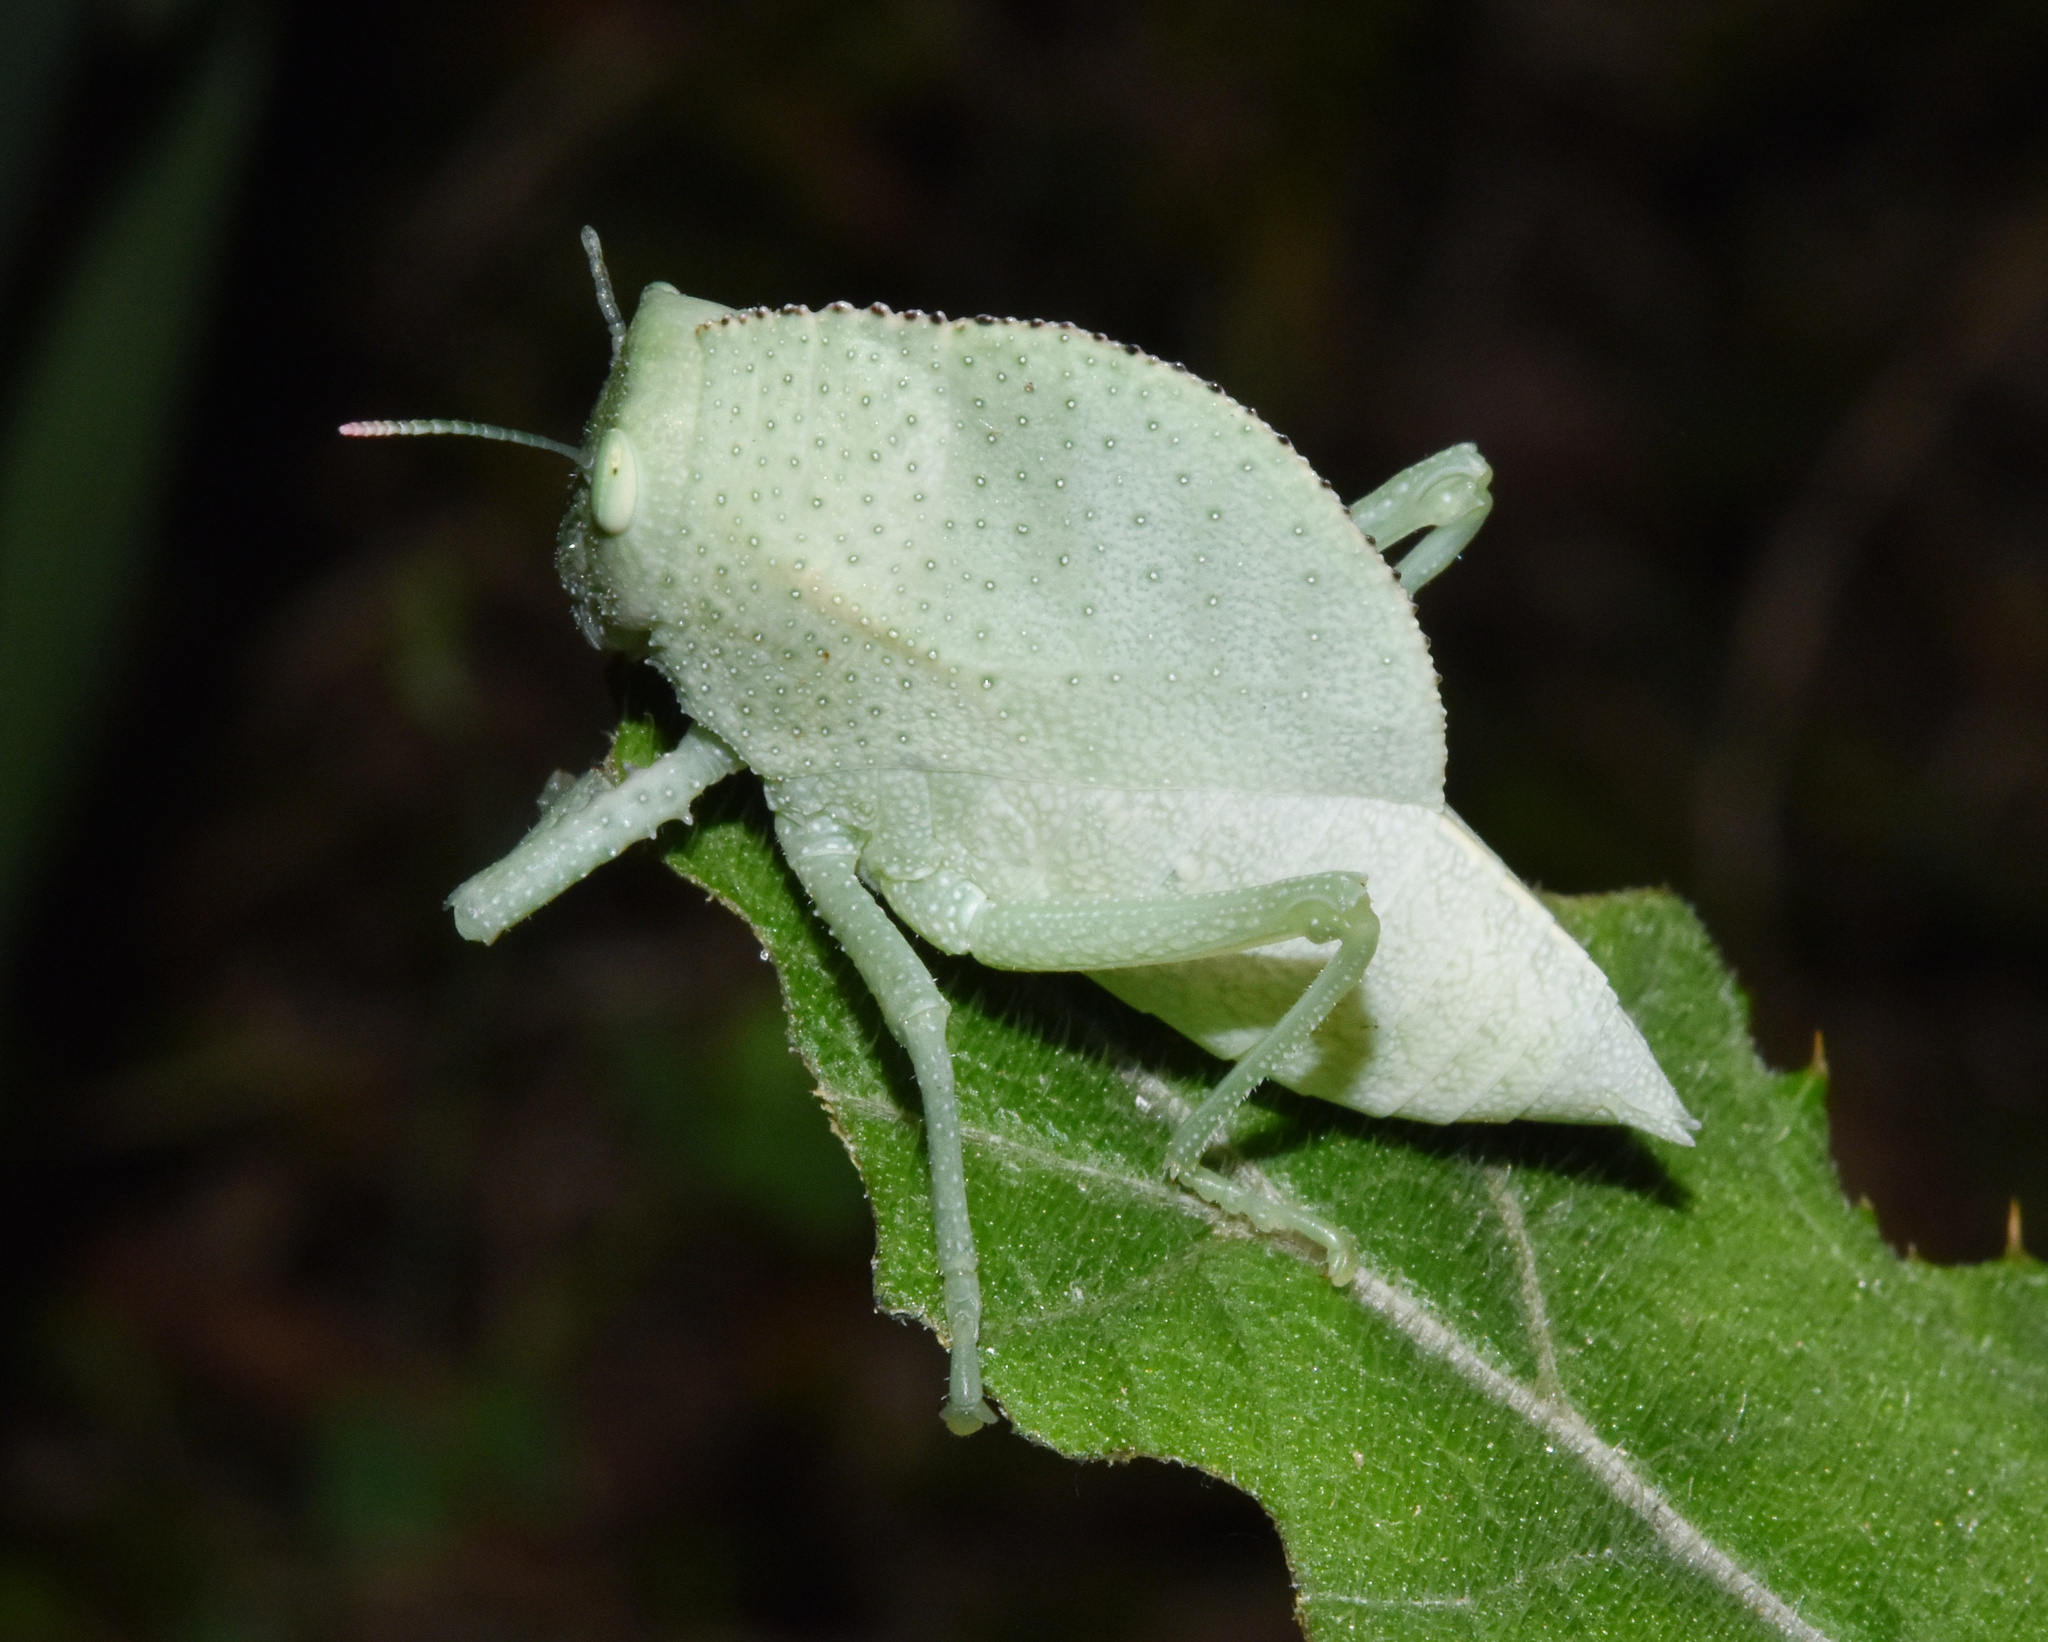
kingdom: Animalia
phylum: Arthropoda
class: Insecta
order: Orthoptera
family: Pneumoridae
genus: Bullacris
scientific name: Bullacris membracioides
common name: Bishop
